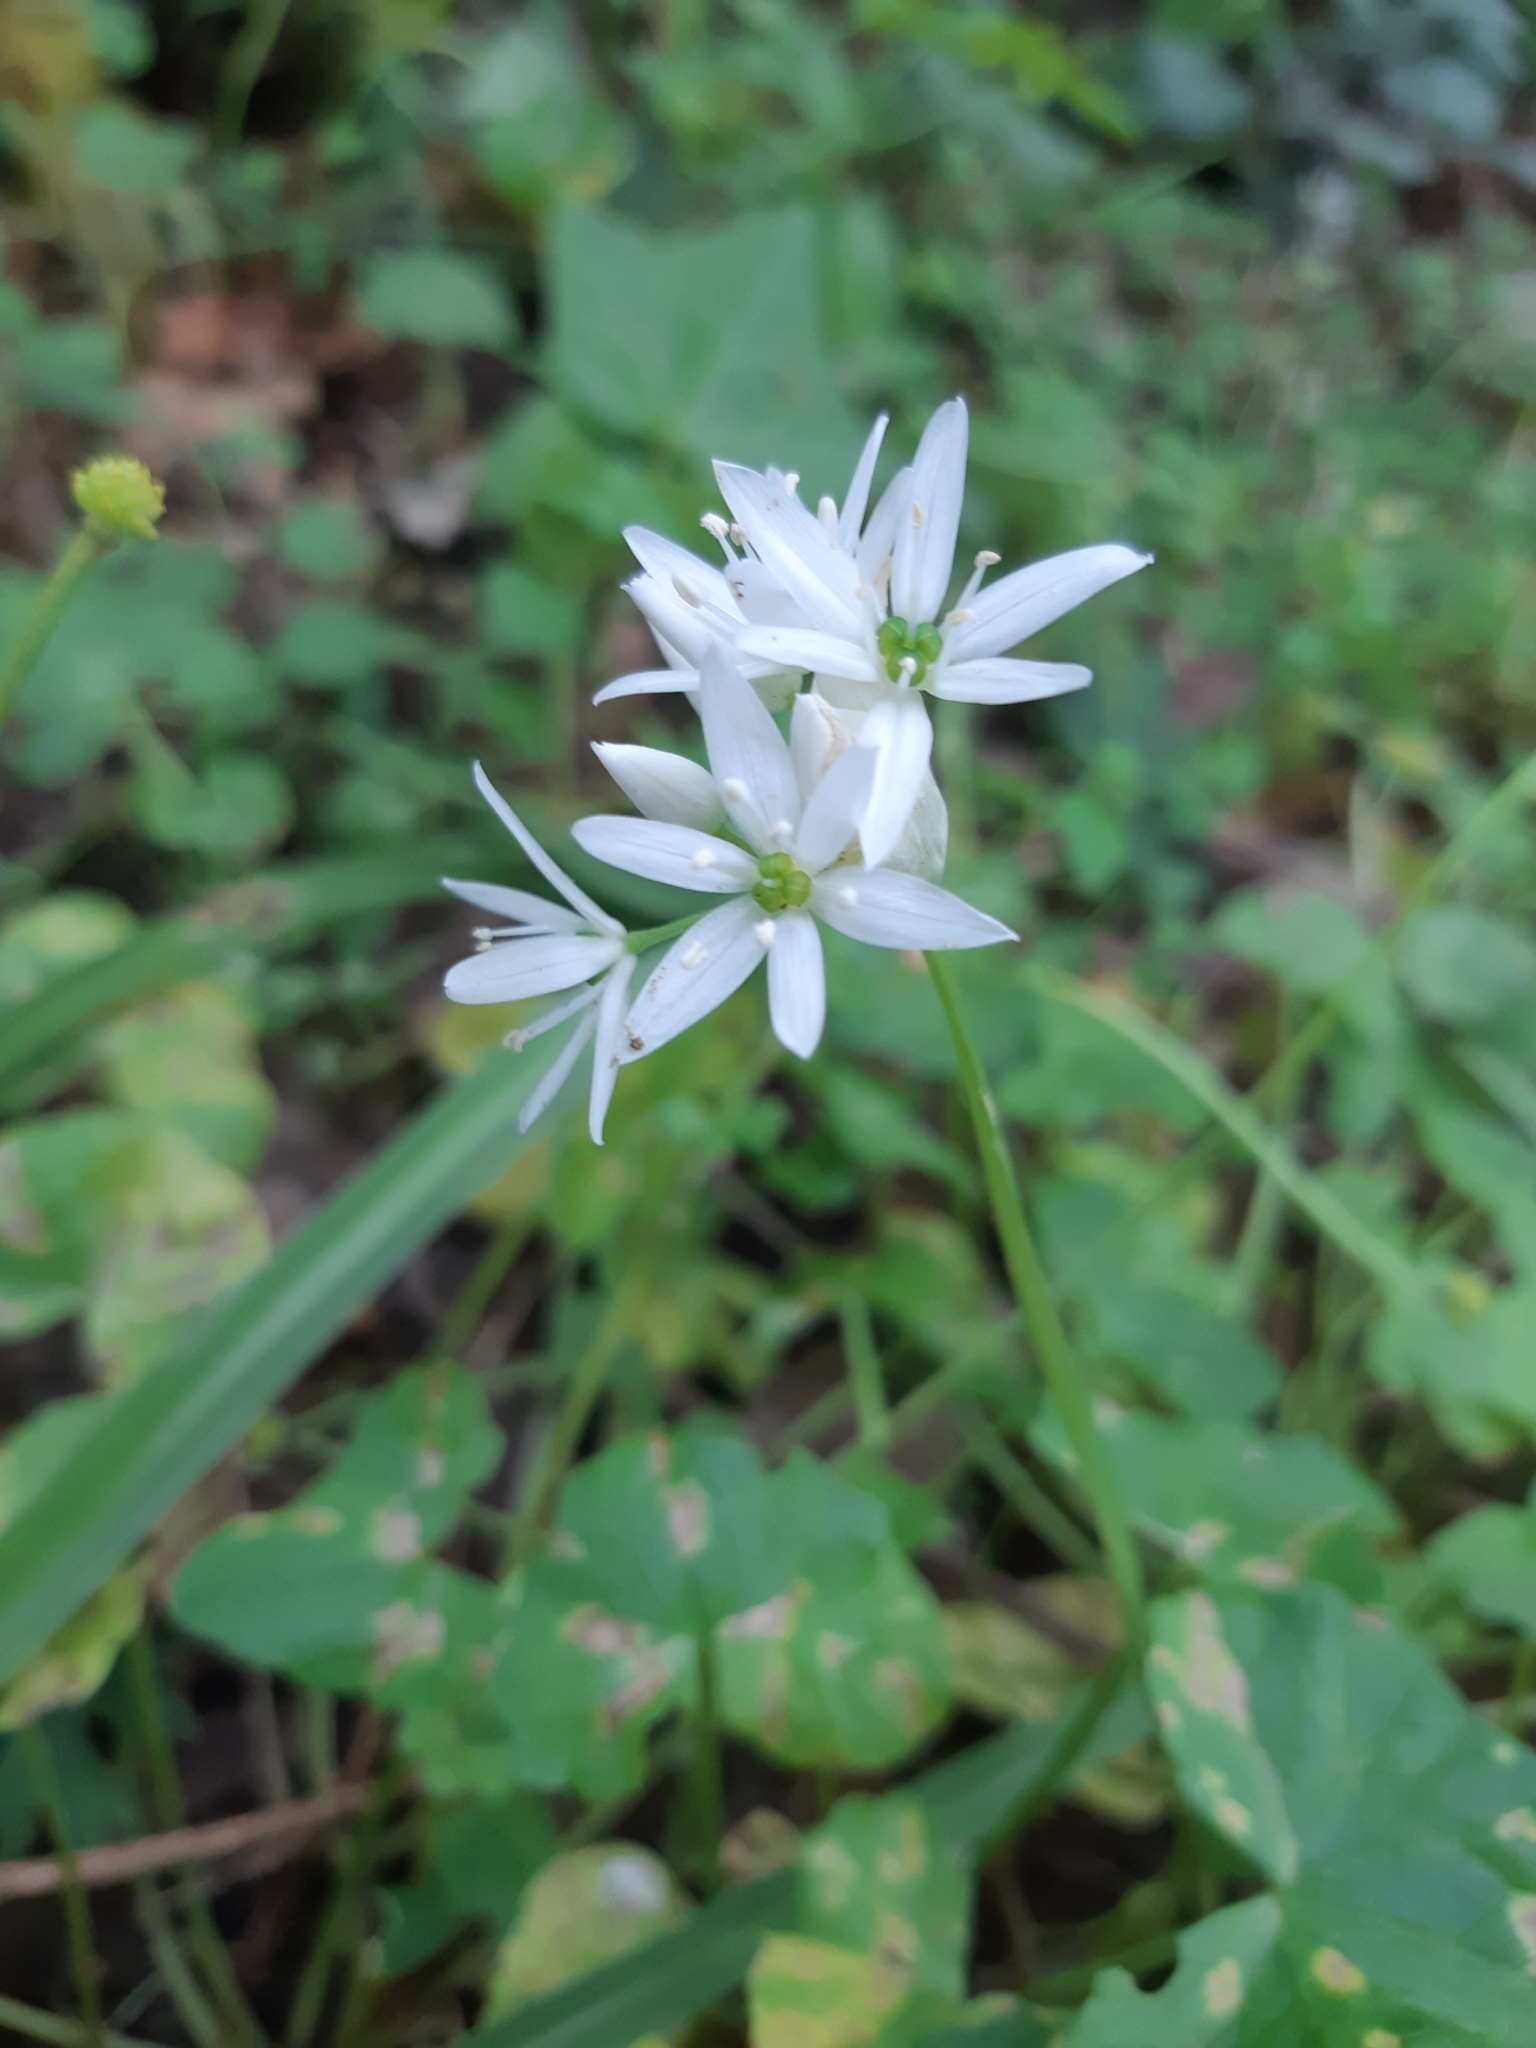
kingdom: Plantae
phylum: Tracheophyta
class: Liliopsida
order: Asparagales
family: Amaryllidaceae
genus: Allium
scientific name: Allium ursinum
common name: Ramsons
